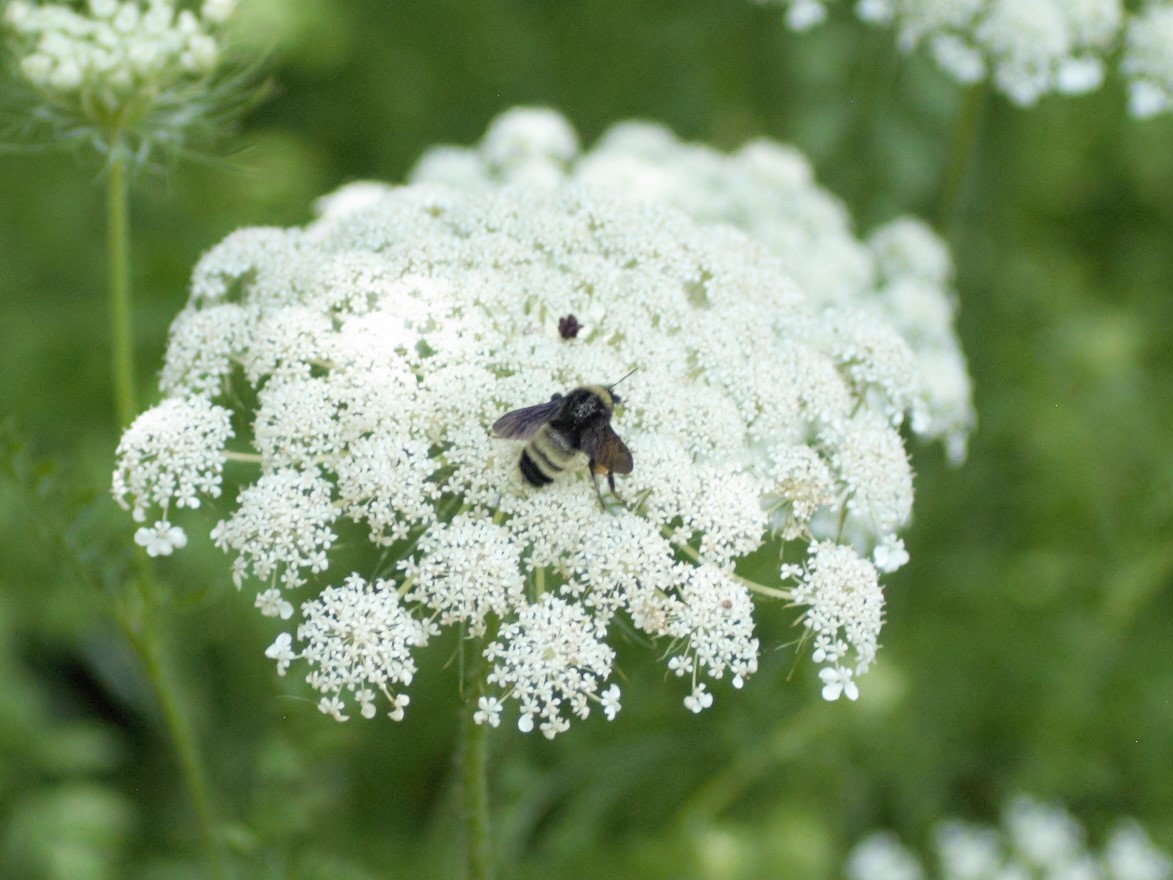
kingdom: Animalia
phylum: Arthropoda
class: Insecta
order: Hymenoptera
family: Apidae
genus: Bombus
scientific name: Bombus pensylvanicus
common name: Bumble bee
